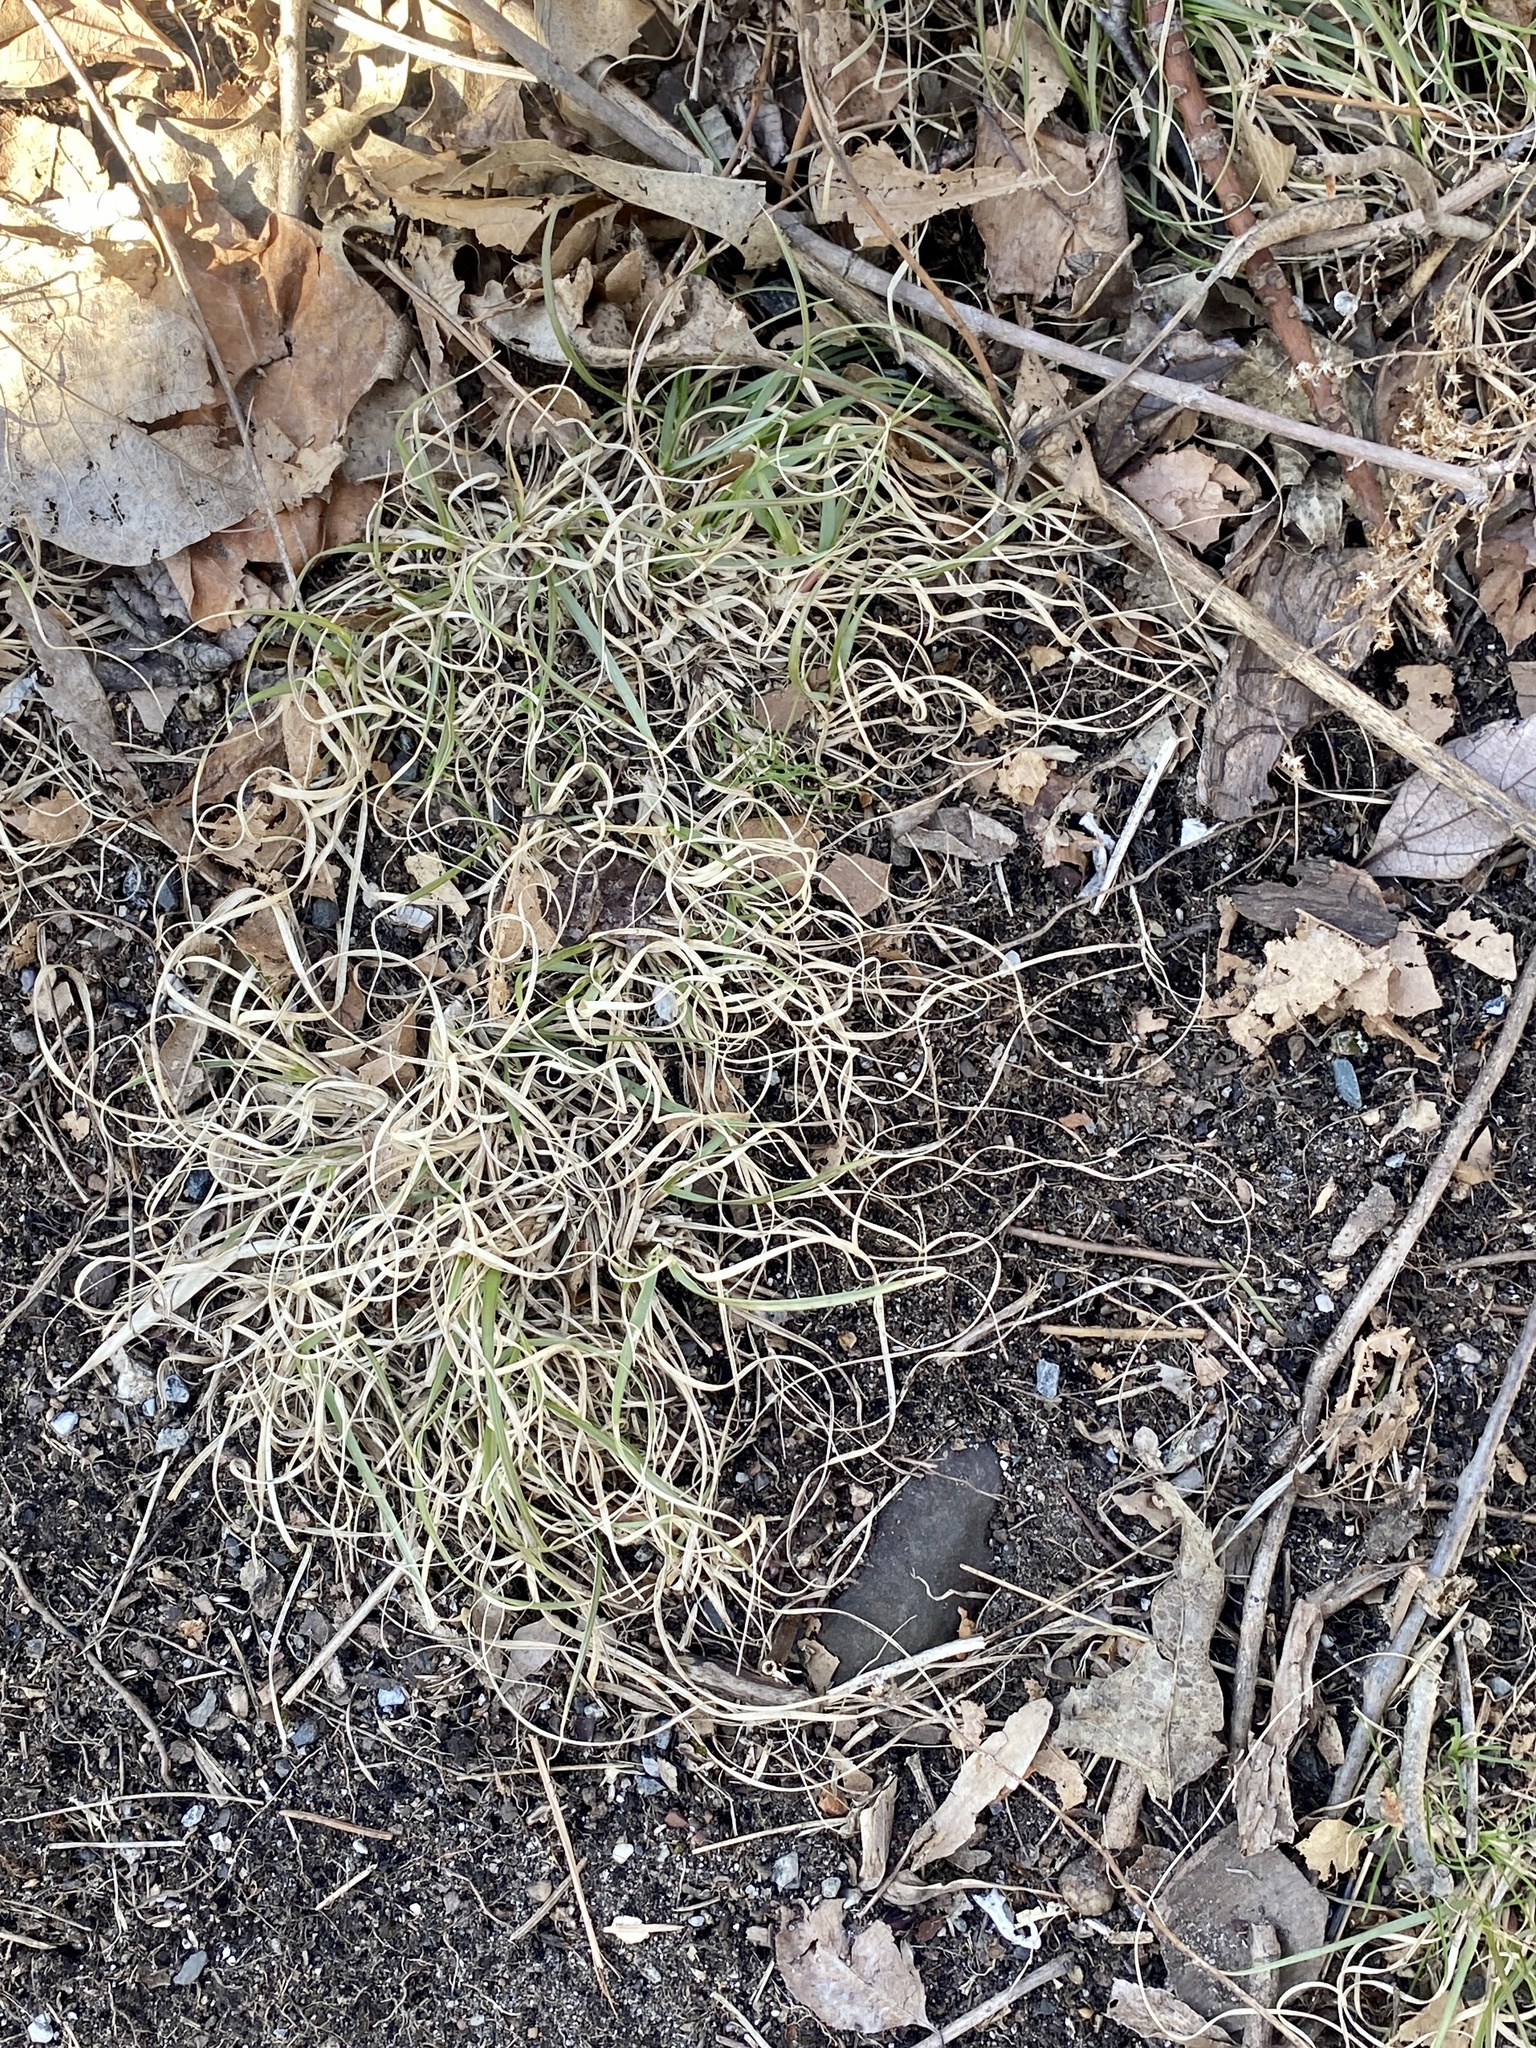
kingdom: Plantae
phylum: Tracheophyta
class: Liliopsida
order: Poales
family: Poaceae
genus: Danthonia
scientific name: Danthonia spicata
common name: Common wild oatgrass
